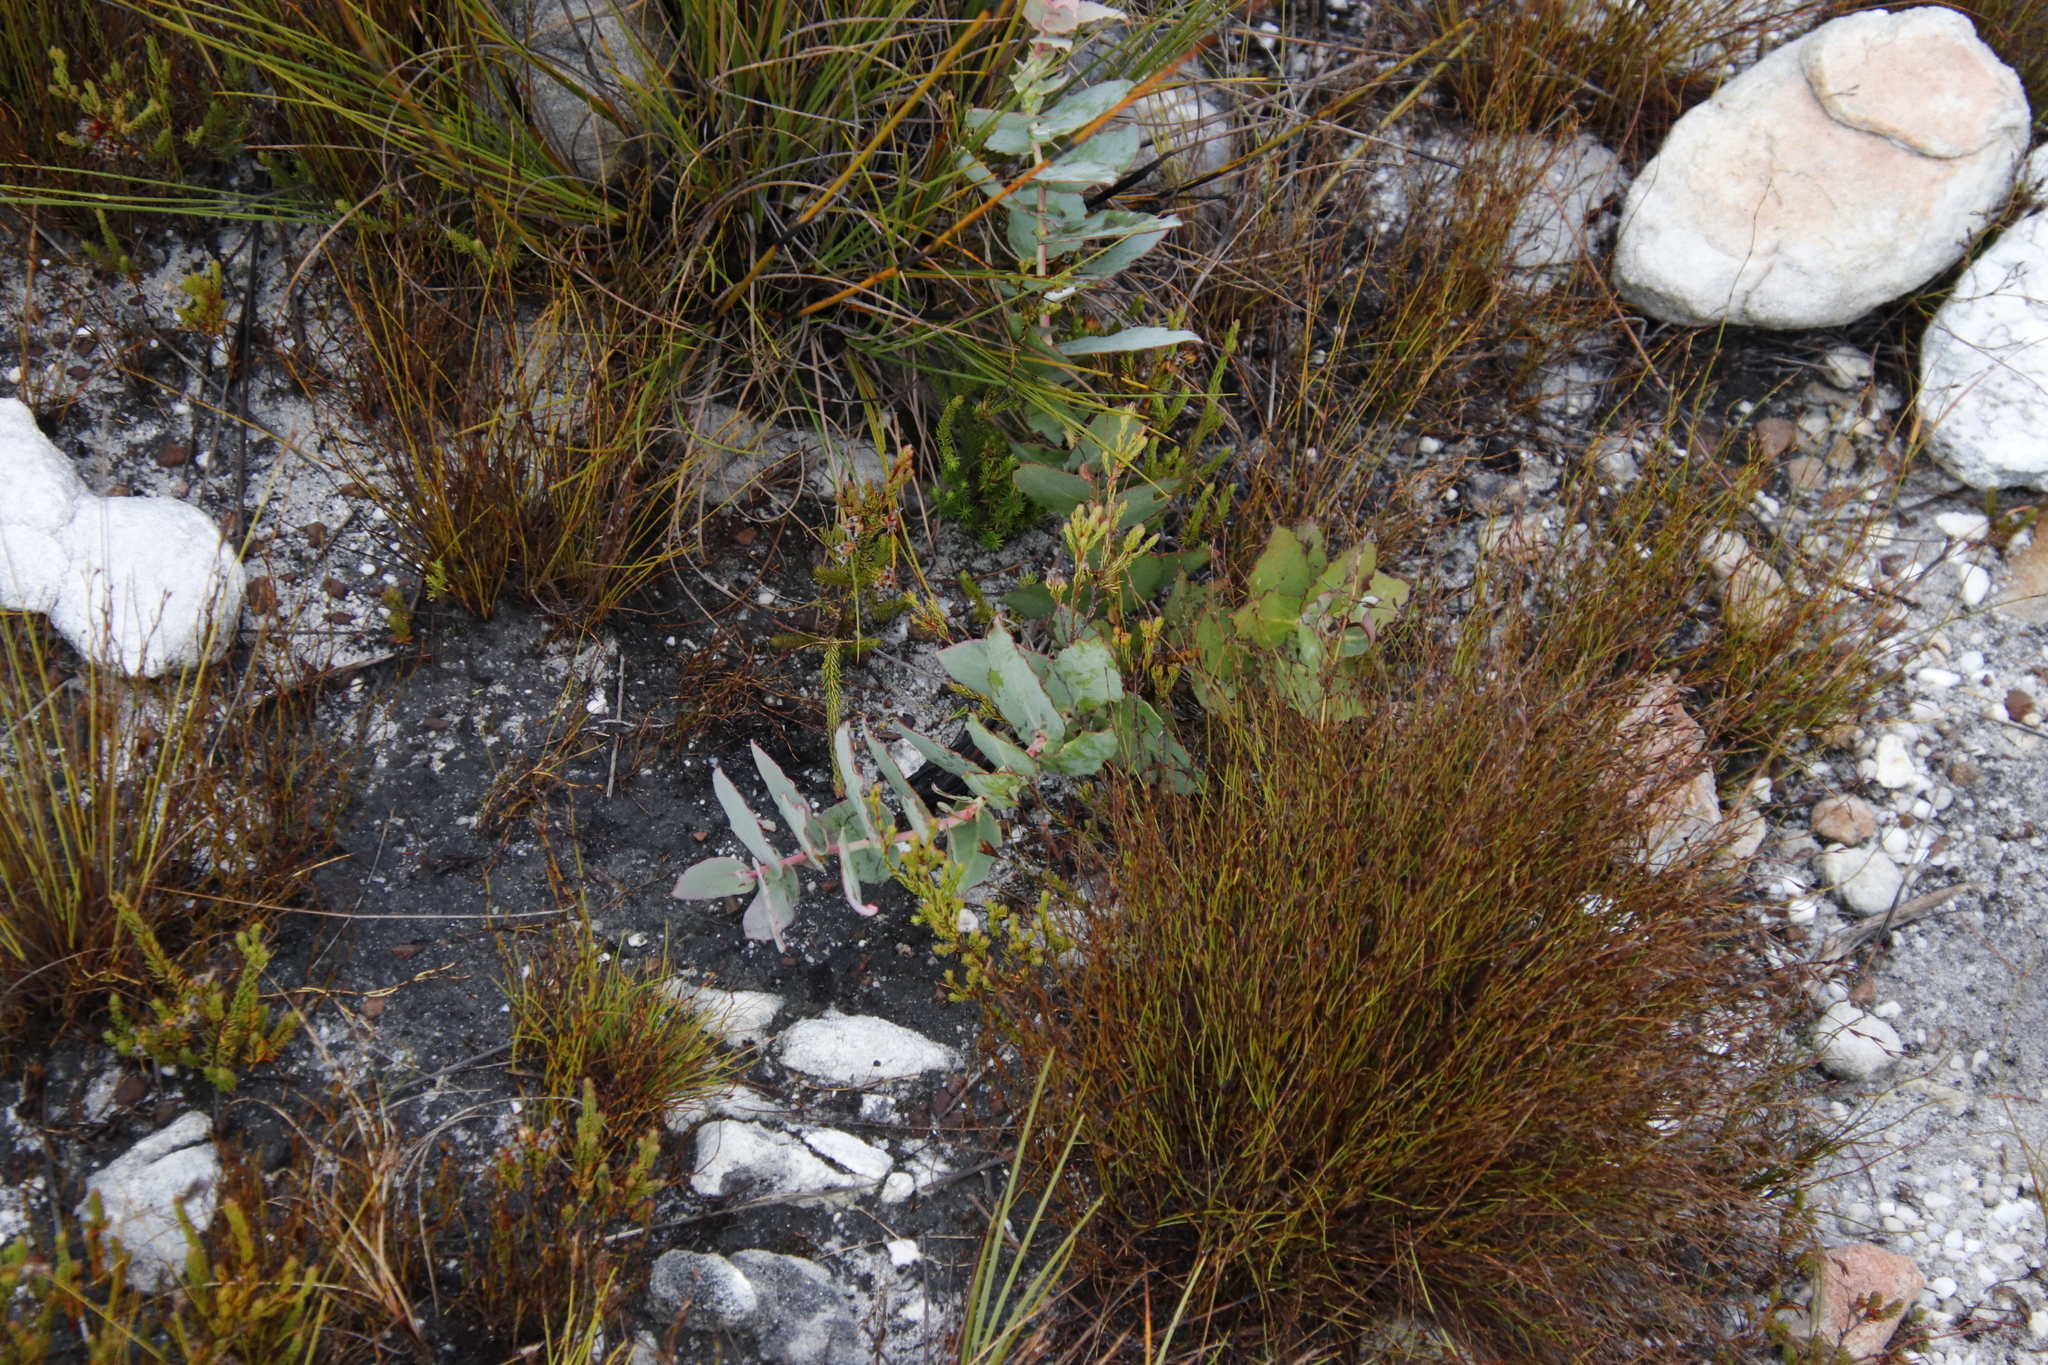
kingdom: Plantae
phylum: Tracheophyta
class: Magnoliopsida
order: Proteales
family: Proteaceae
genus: Protea
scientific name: Protea amplexicaulis
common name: Clasping-leaf sugarbush
